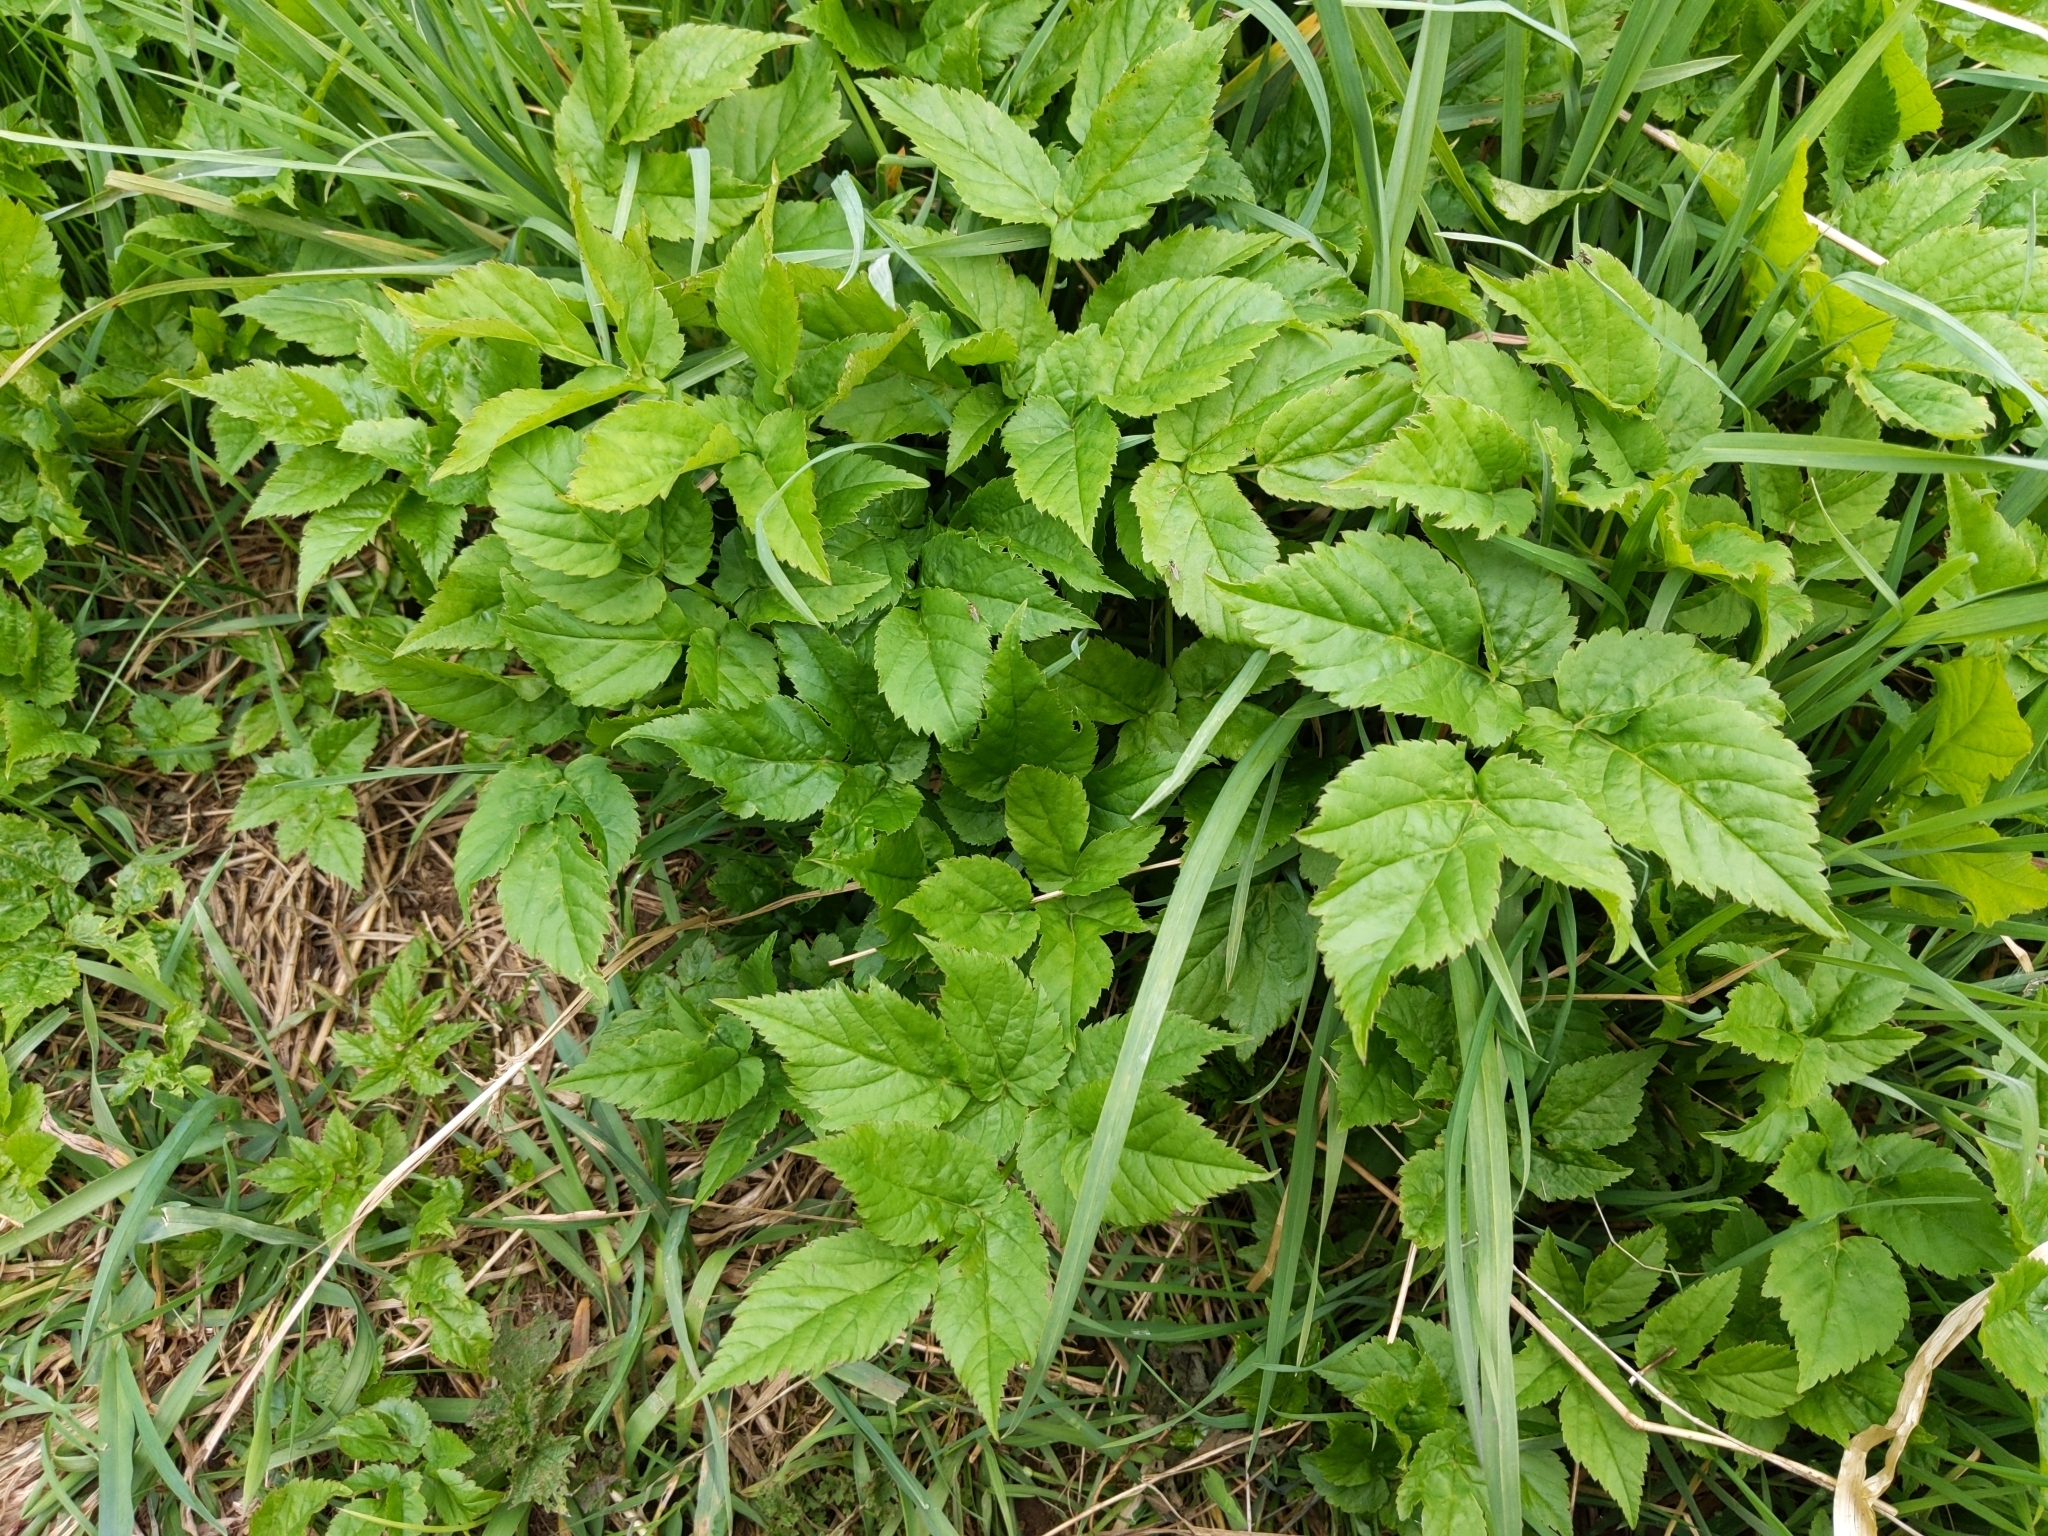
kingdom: Plantae
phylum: Tracheophyta
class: Magnoliopsida
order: Apiales
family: Apiaceae
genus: Aegopodium
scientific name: Aegopodium podagraria
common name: Ground-elder
